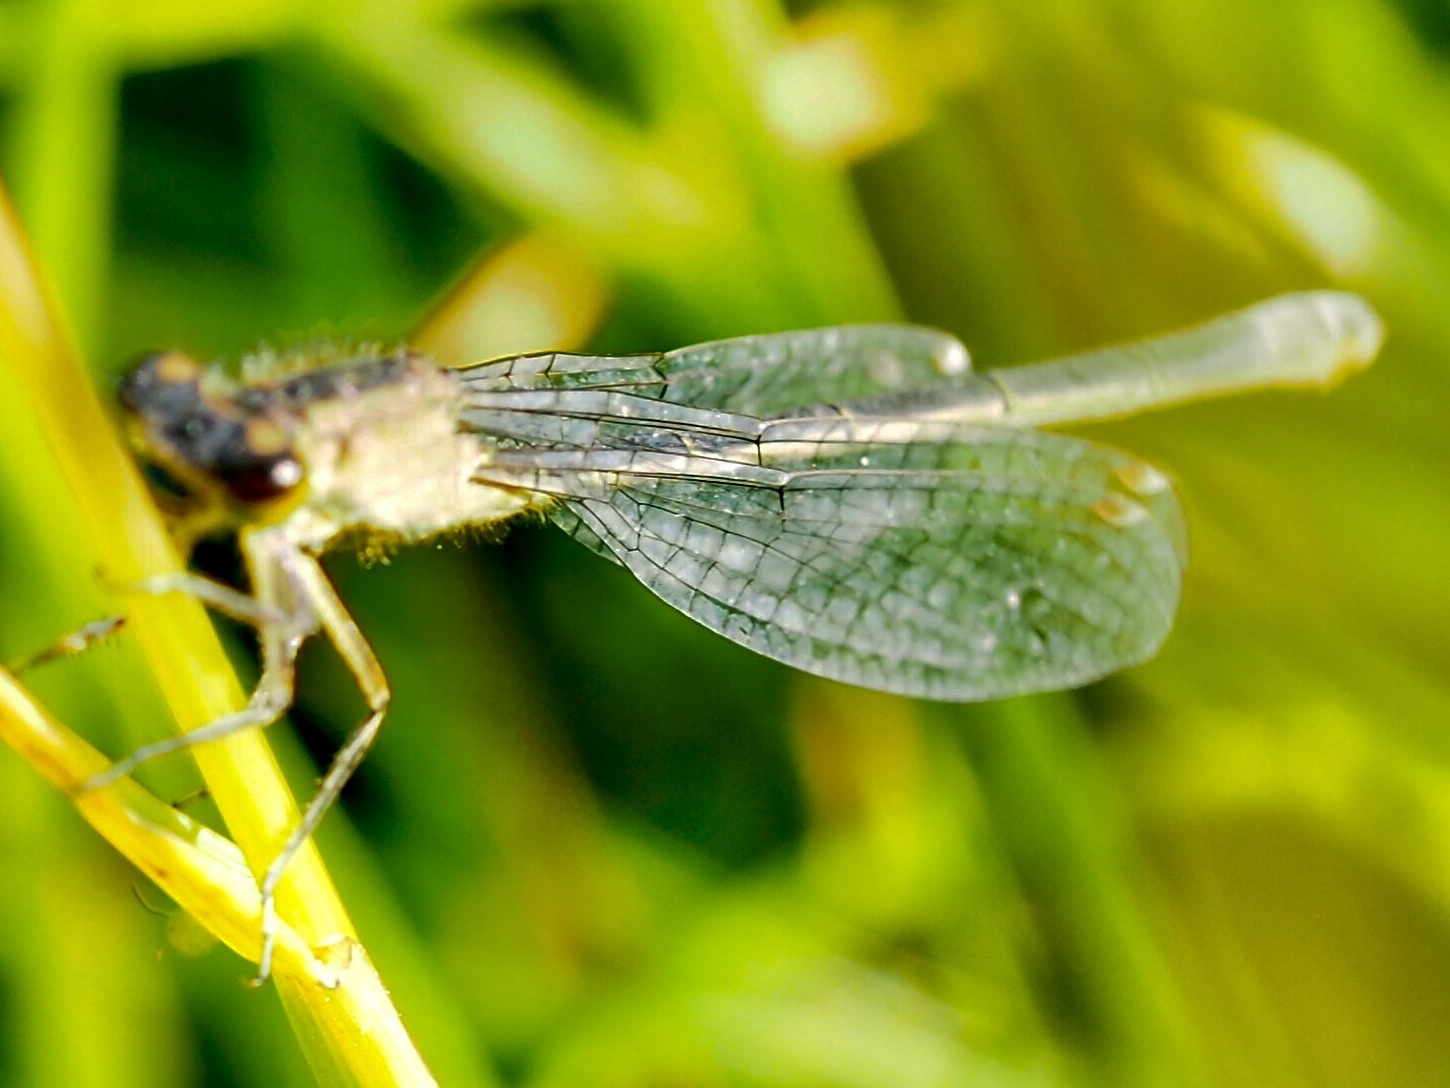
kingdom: Animalia
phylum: Arthropoda
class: Insecta
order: Odonata
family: Coenagrionidae
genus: Ischnura
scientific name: Ischnura pumilio
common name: Scarce blue-tailed damselfly
